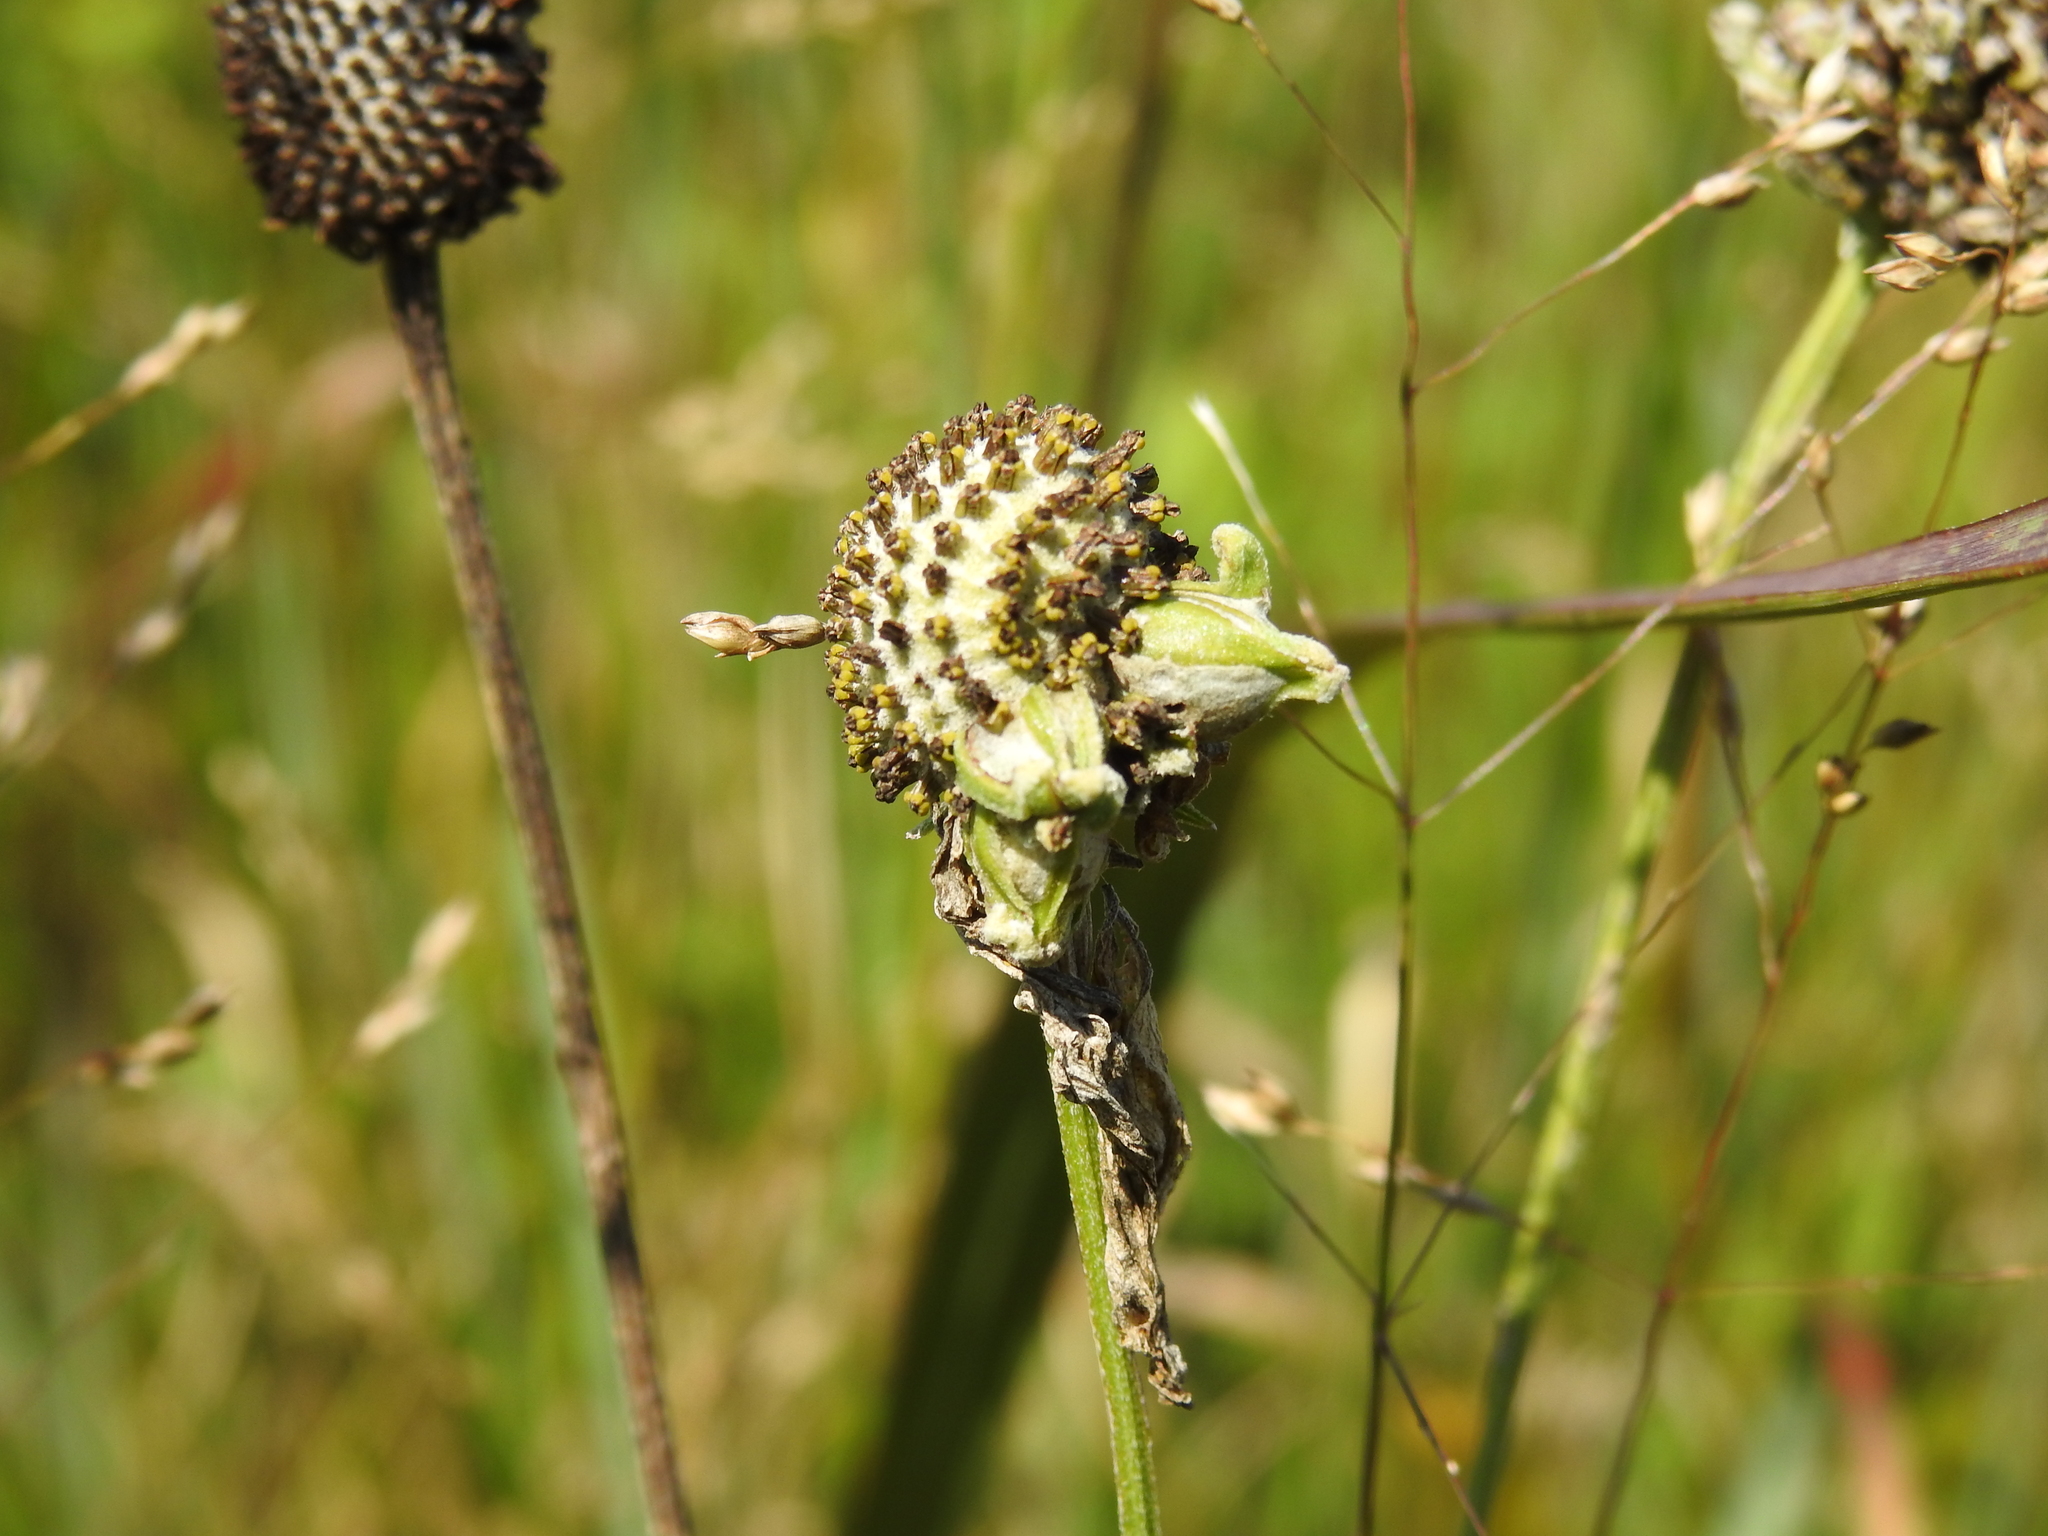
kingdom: Animalia
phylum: Arthropoda
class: Insecta
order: Diptera
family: Cecidomyiidae
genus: Asphondylia
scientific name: Asphondylia ratibidae
